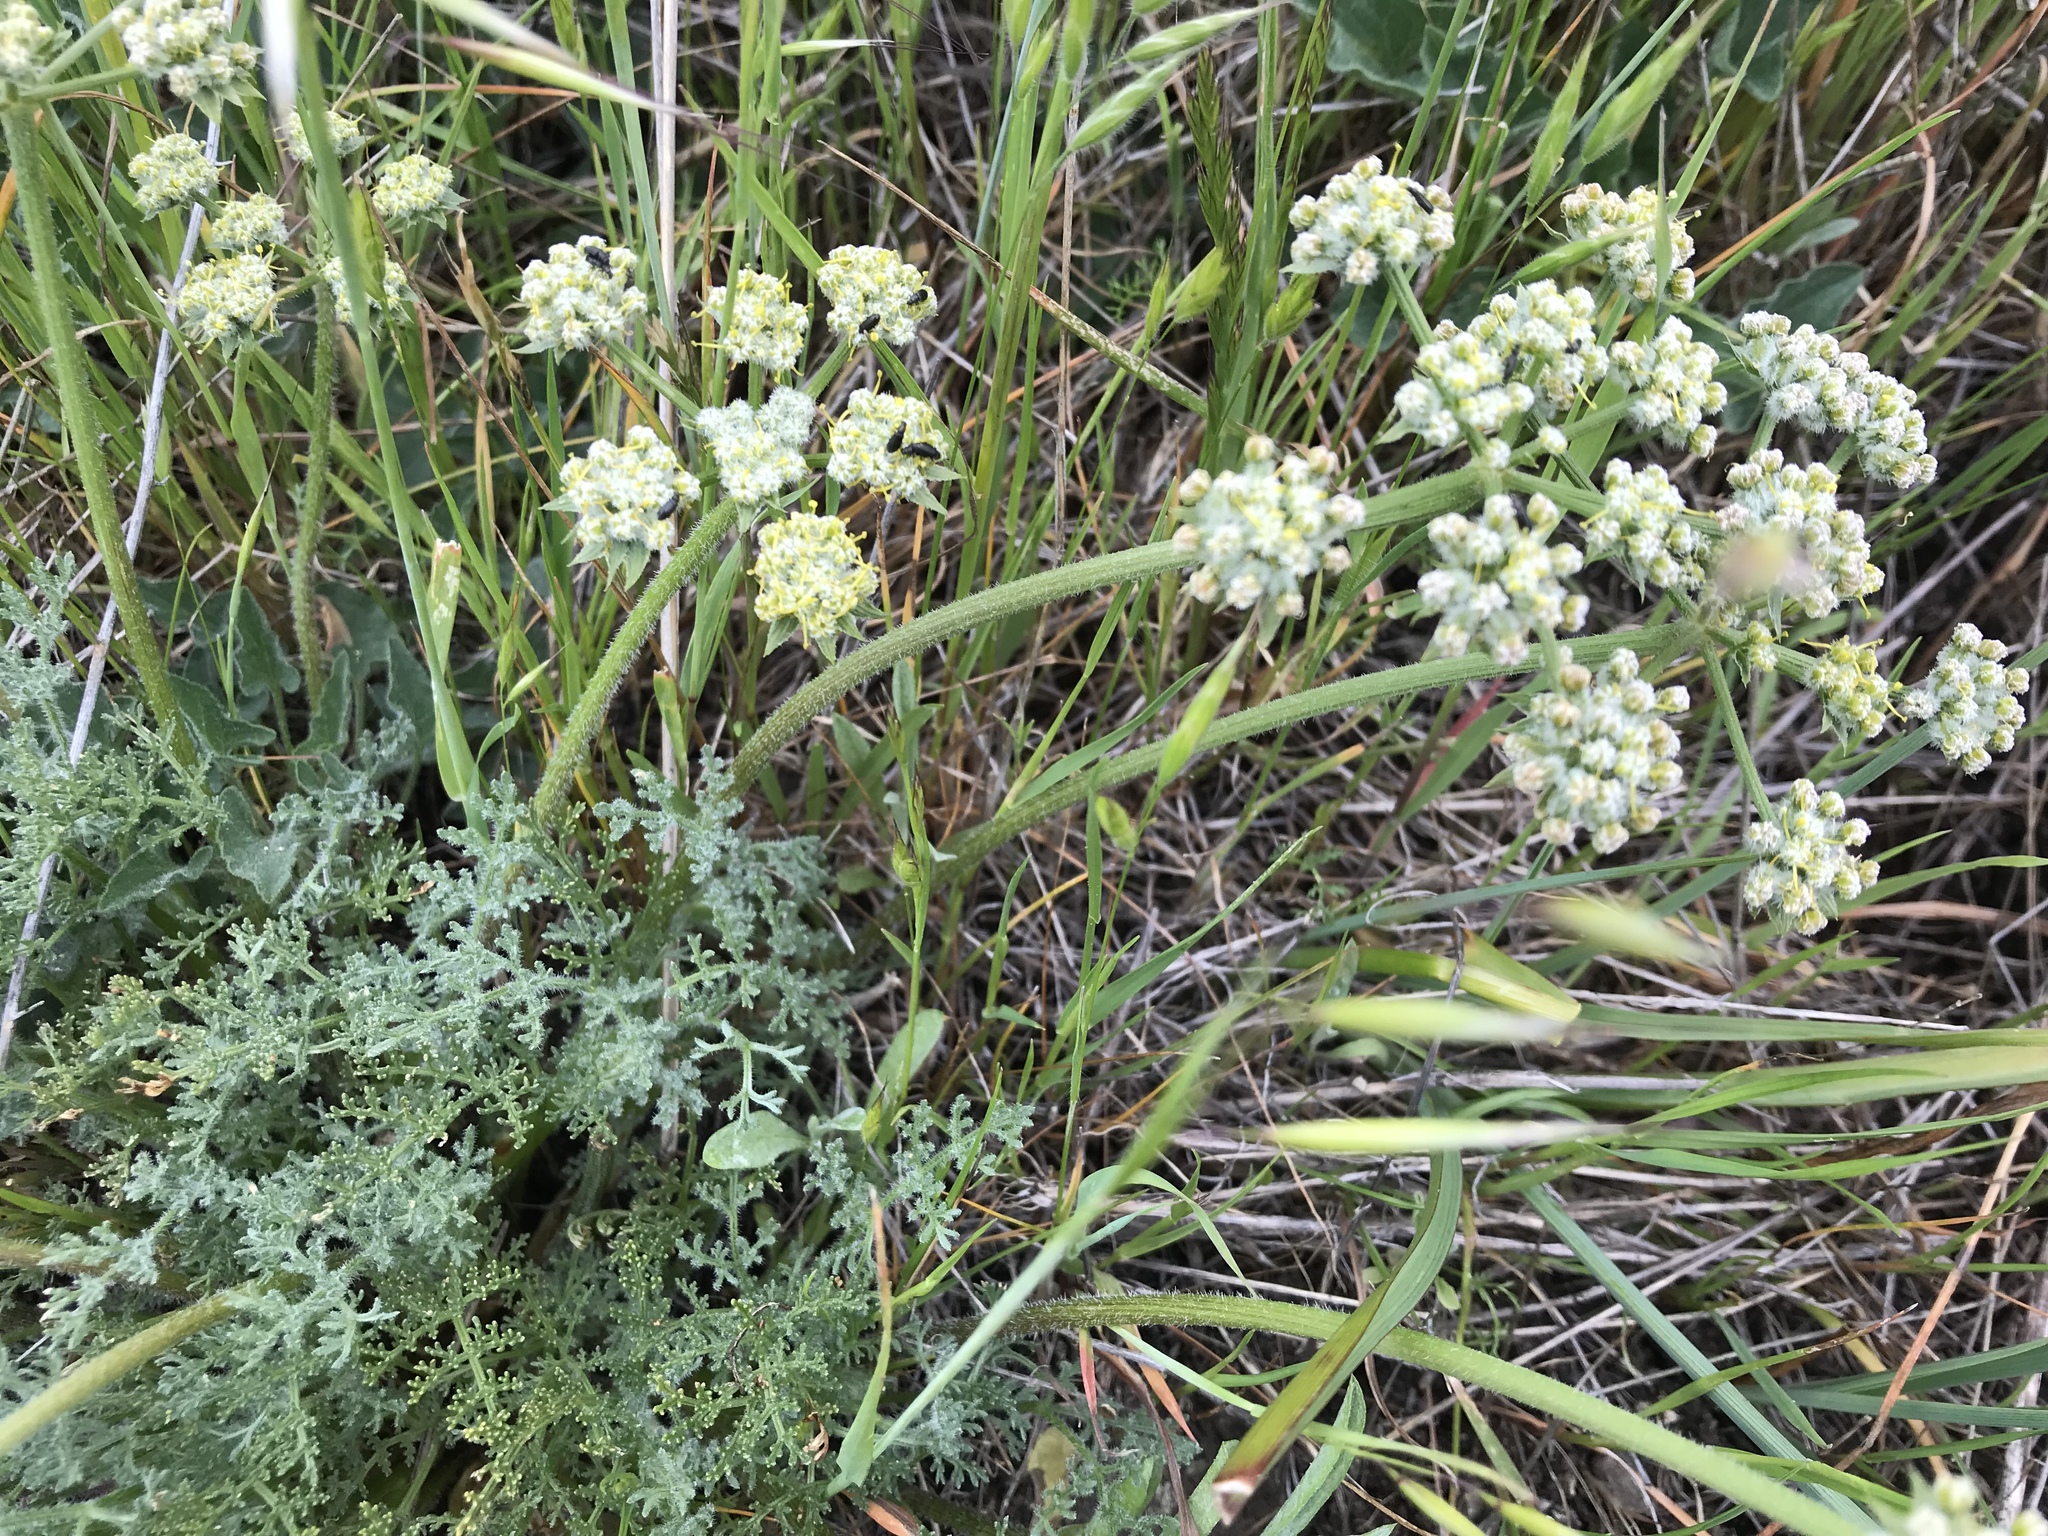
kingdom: Plantae
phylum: Tracheophyta
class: Magnoliopsida
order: Apiales
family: Apiaceae
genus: Lomatium
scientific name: Lomatium dasycarpum
